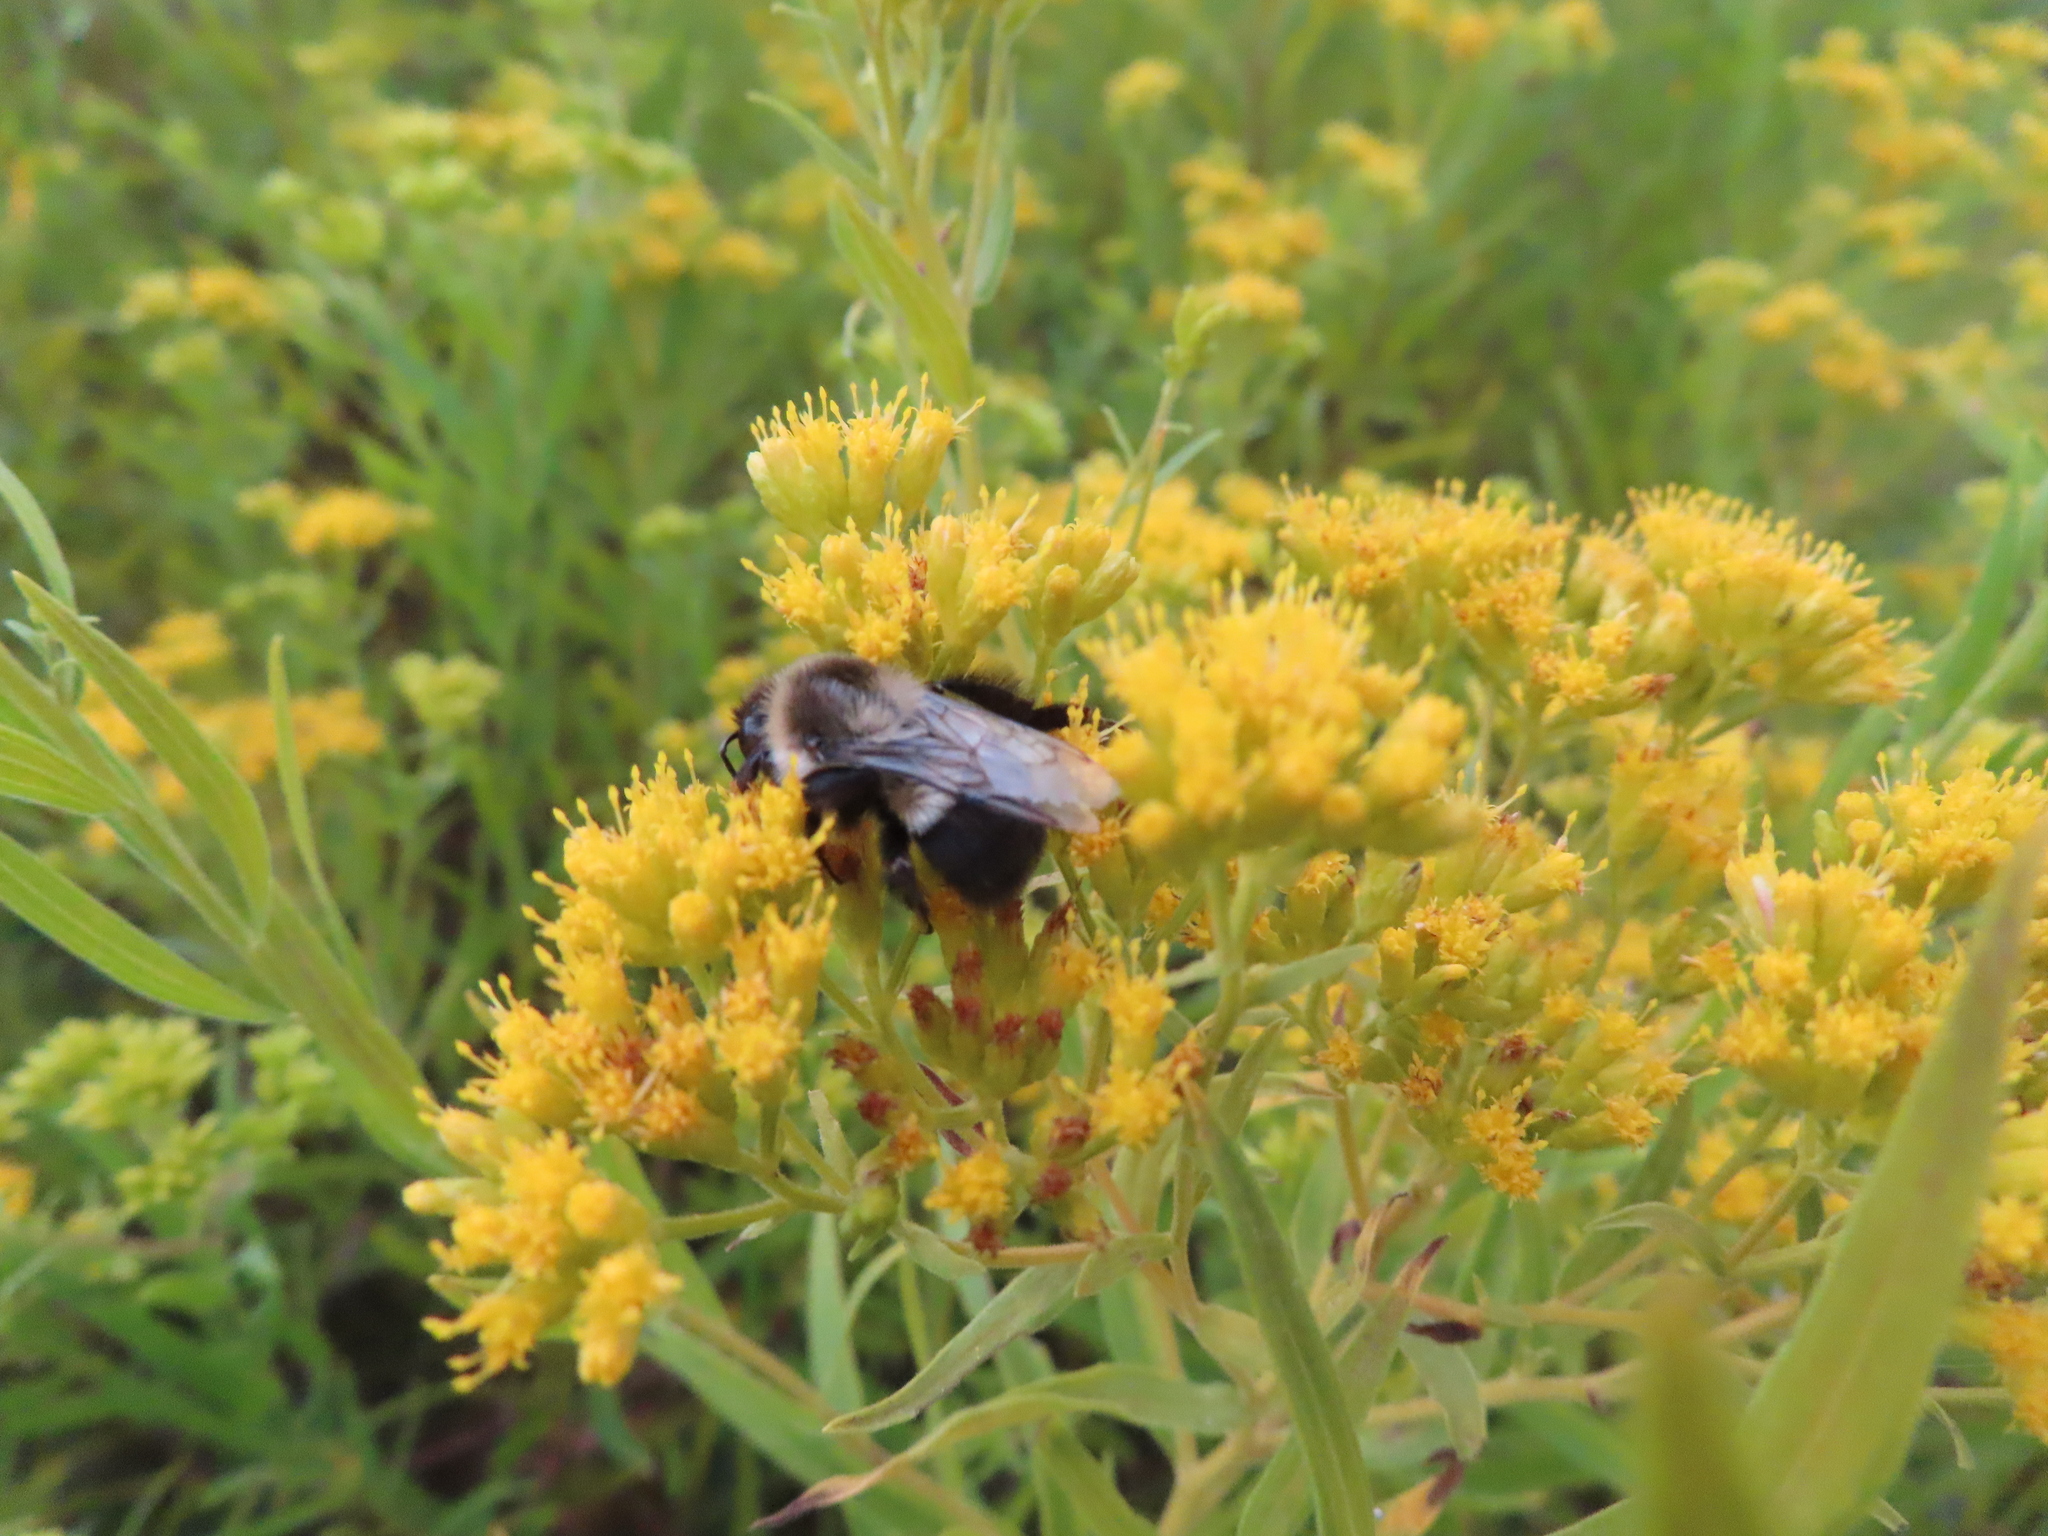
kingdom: Animalia
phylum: Arthropoda
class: Insecta
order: Hymenoptera
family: Apidae
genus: Bombus
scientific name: Bombus impatiens
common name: Common eastern bumble bee
